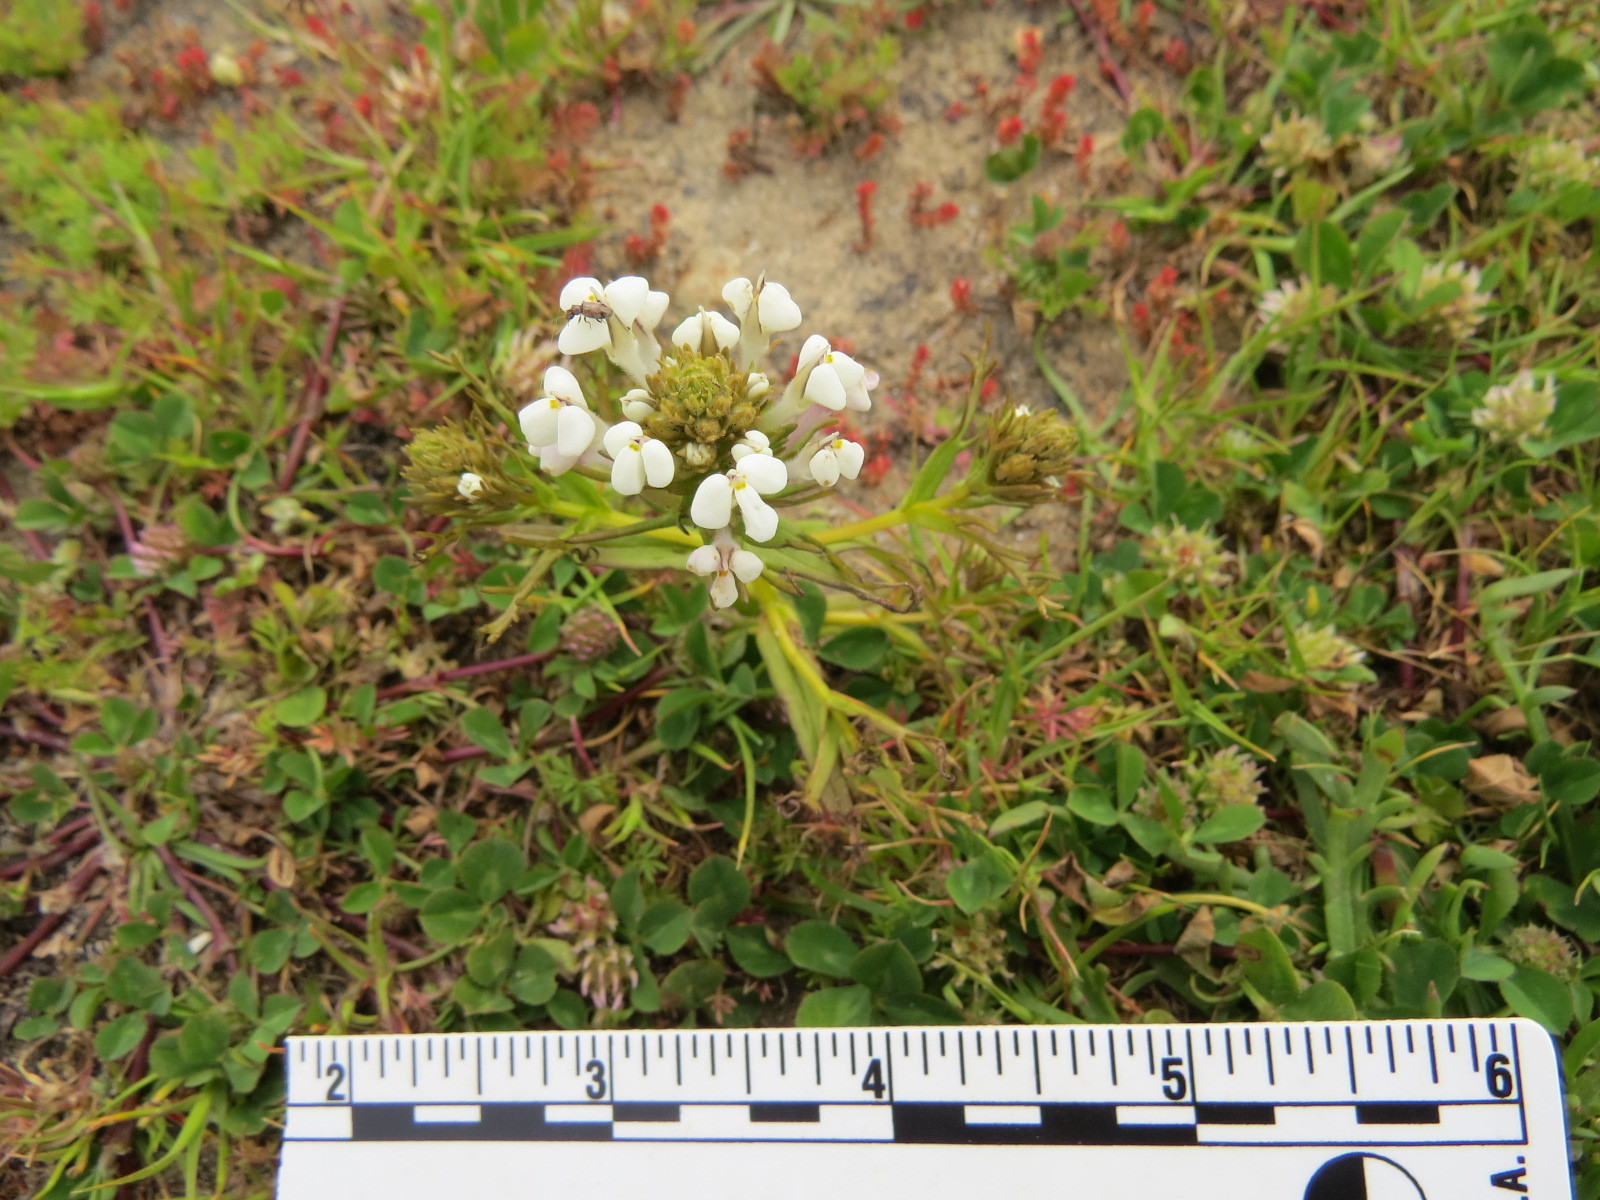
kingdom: Plantae
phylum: Tracheophyta
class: Magnoliopsida
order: Lamiales
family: Orobanchaceae
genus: Triphysaria
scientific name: Triphysaria versicolor
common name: Bearded false owl-clover
